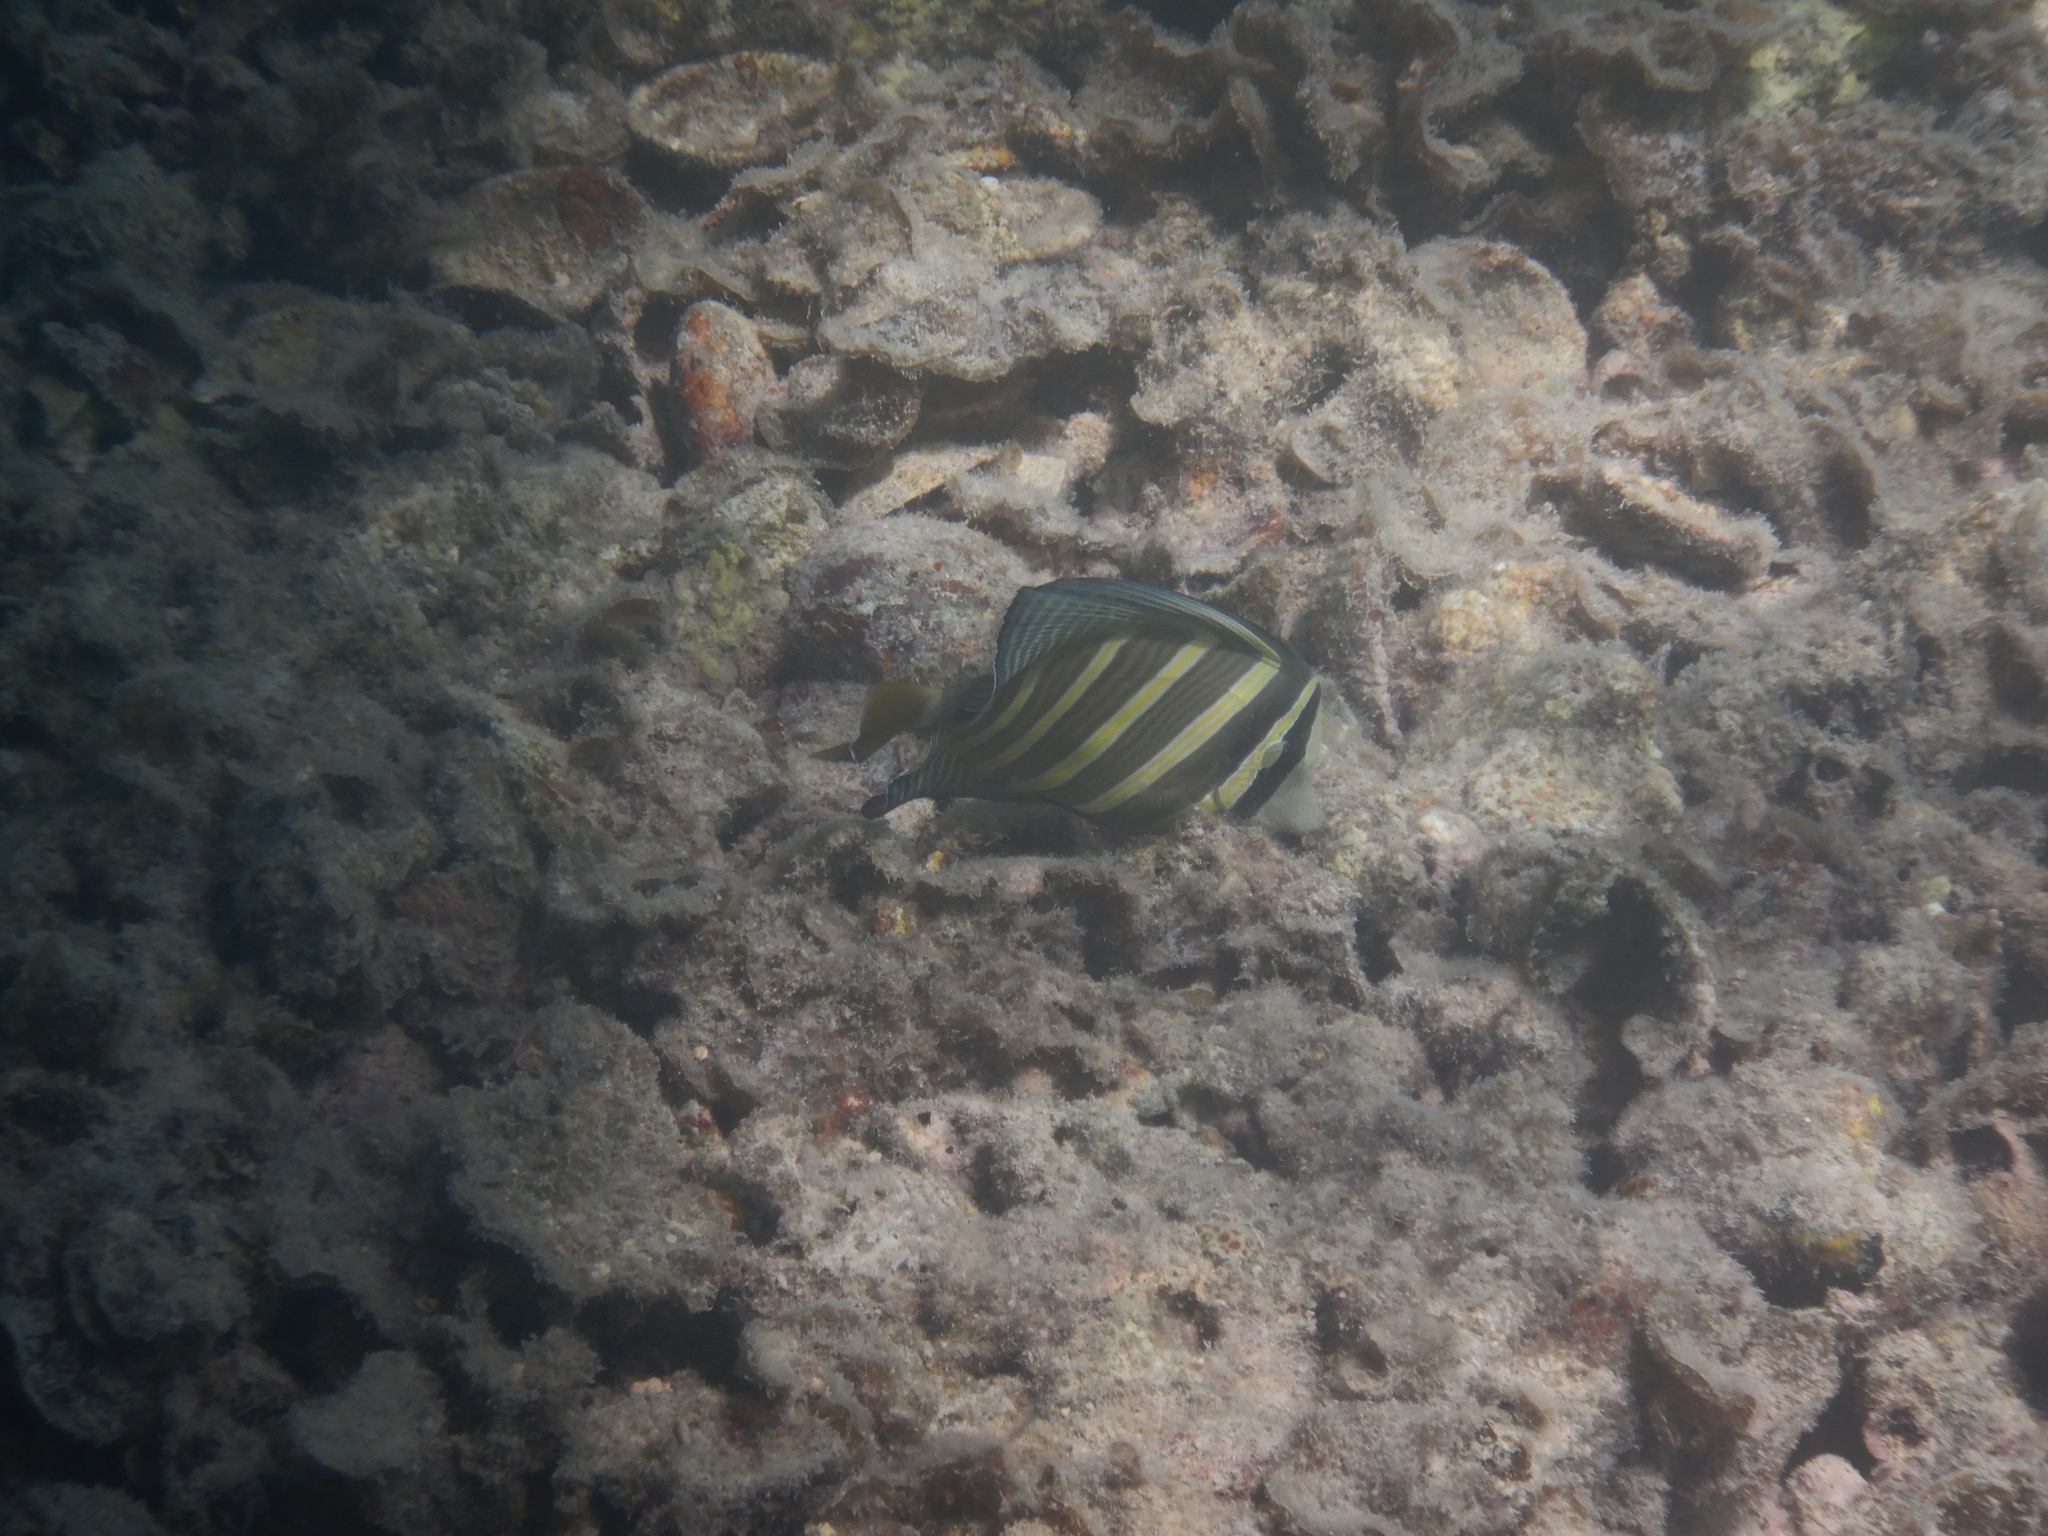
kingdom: Animalia
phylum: Chordata
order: Perciformes
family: Acanthuridae
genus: Zebrasoma
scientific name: Zebrasoma veliferum
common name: Sailfin surgeonfish
